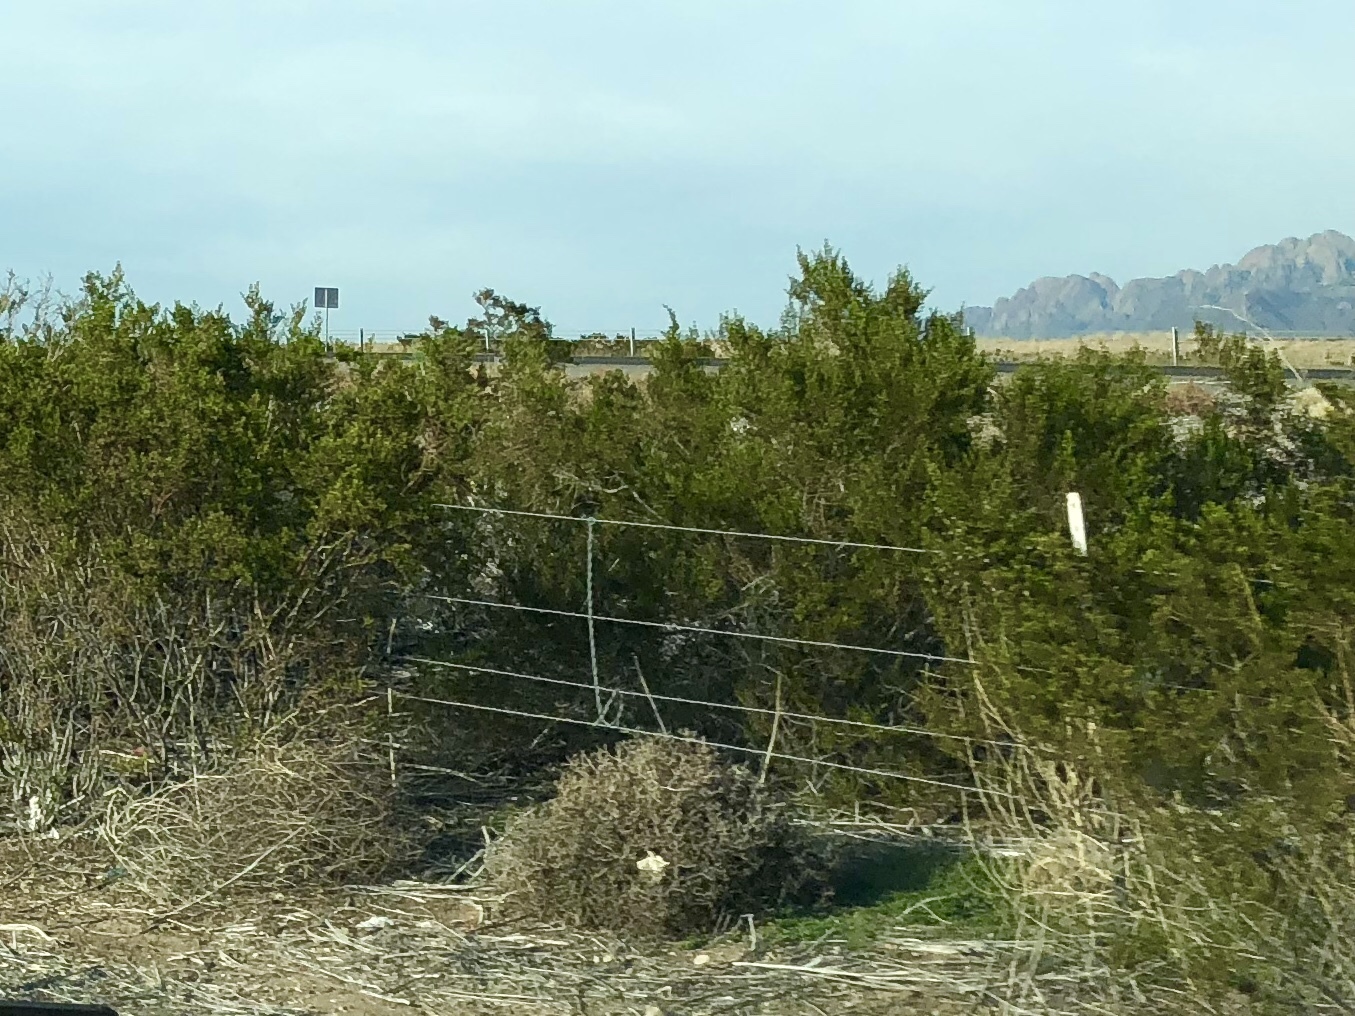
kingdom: Plantae
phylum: Tracheophyta
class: Magnoliopsida
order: Zygophyllales
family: Zygophyllaceae
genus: Larrea
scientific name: Larrea tridentata
